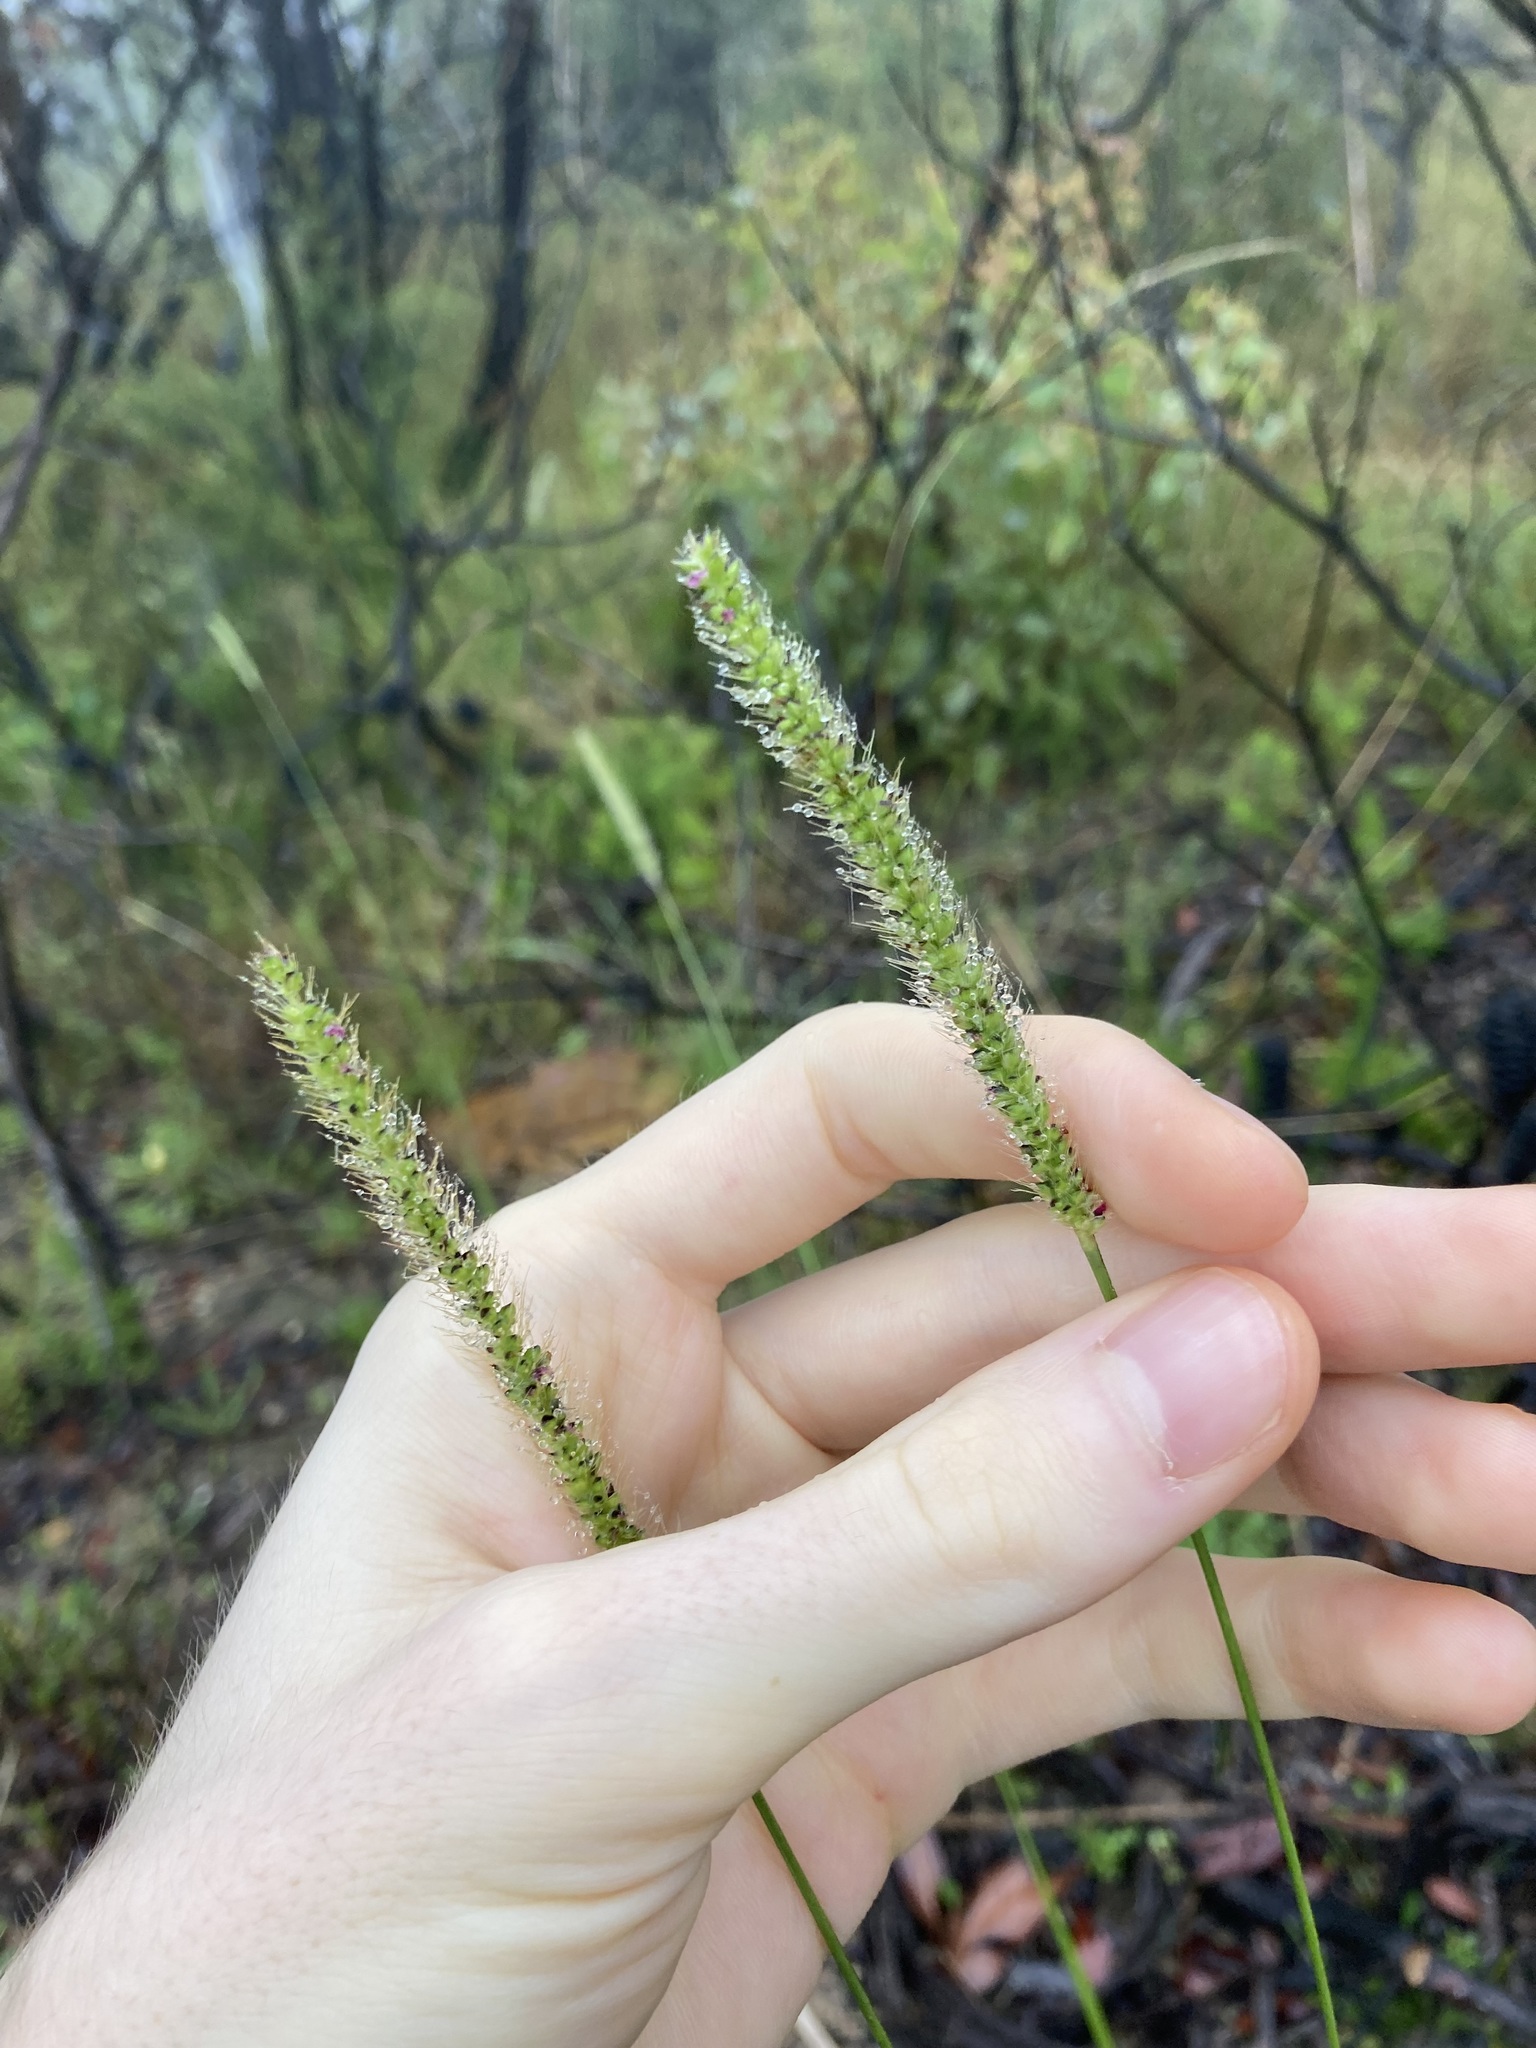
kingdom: Plantae
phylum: Tracheophyta
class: Liliopsida
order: Poales
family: Poaceae
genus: Setaria
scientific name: Setaria parviflora
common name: Knotroot bristle-grass
